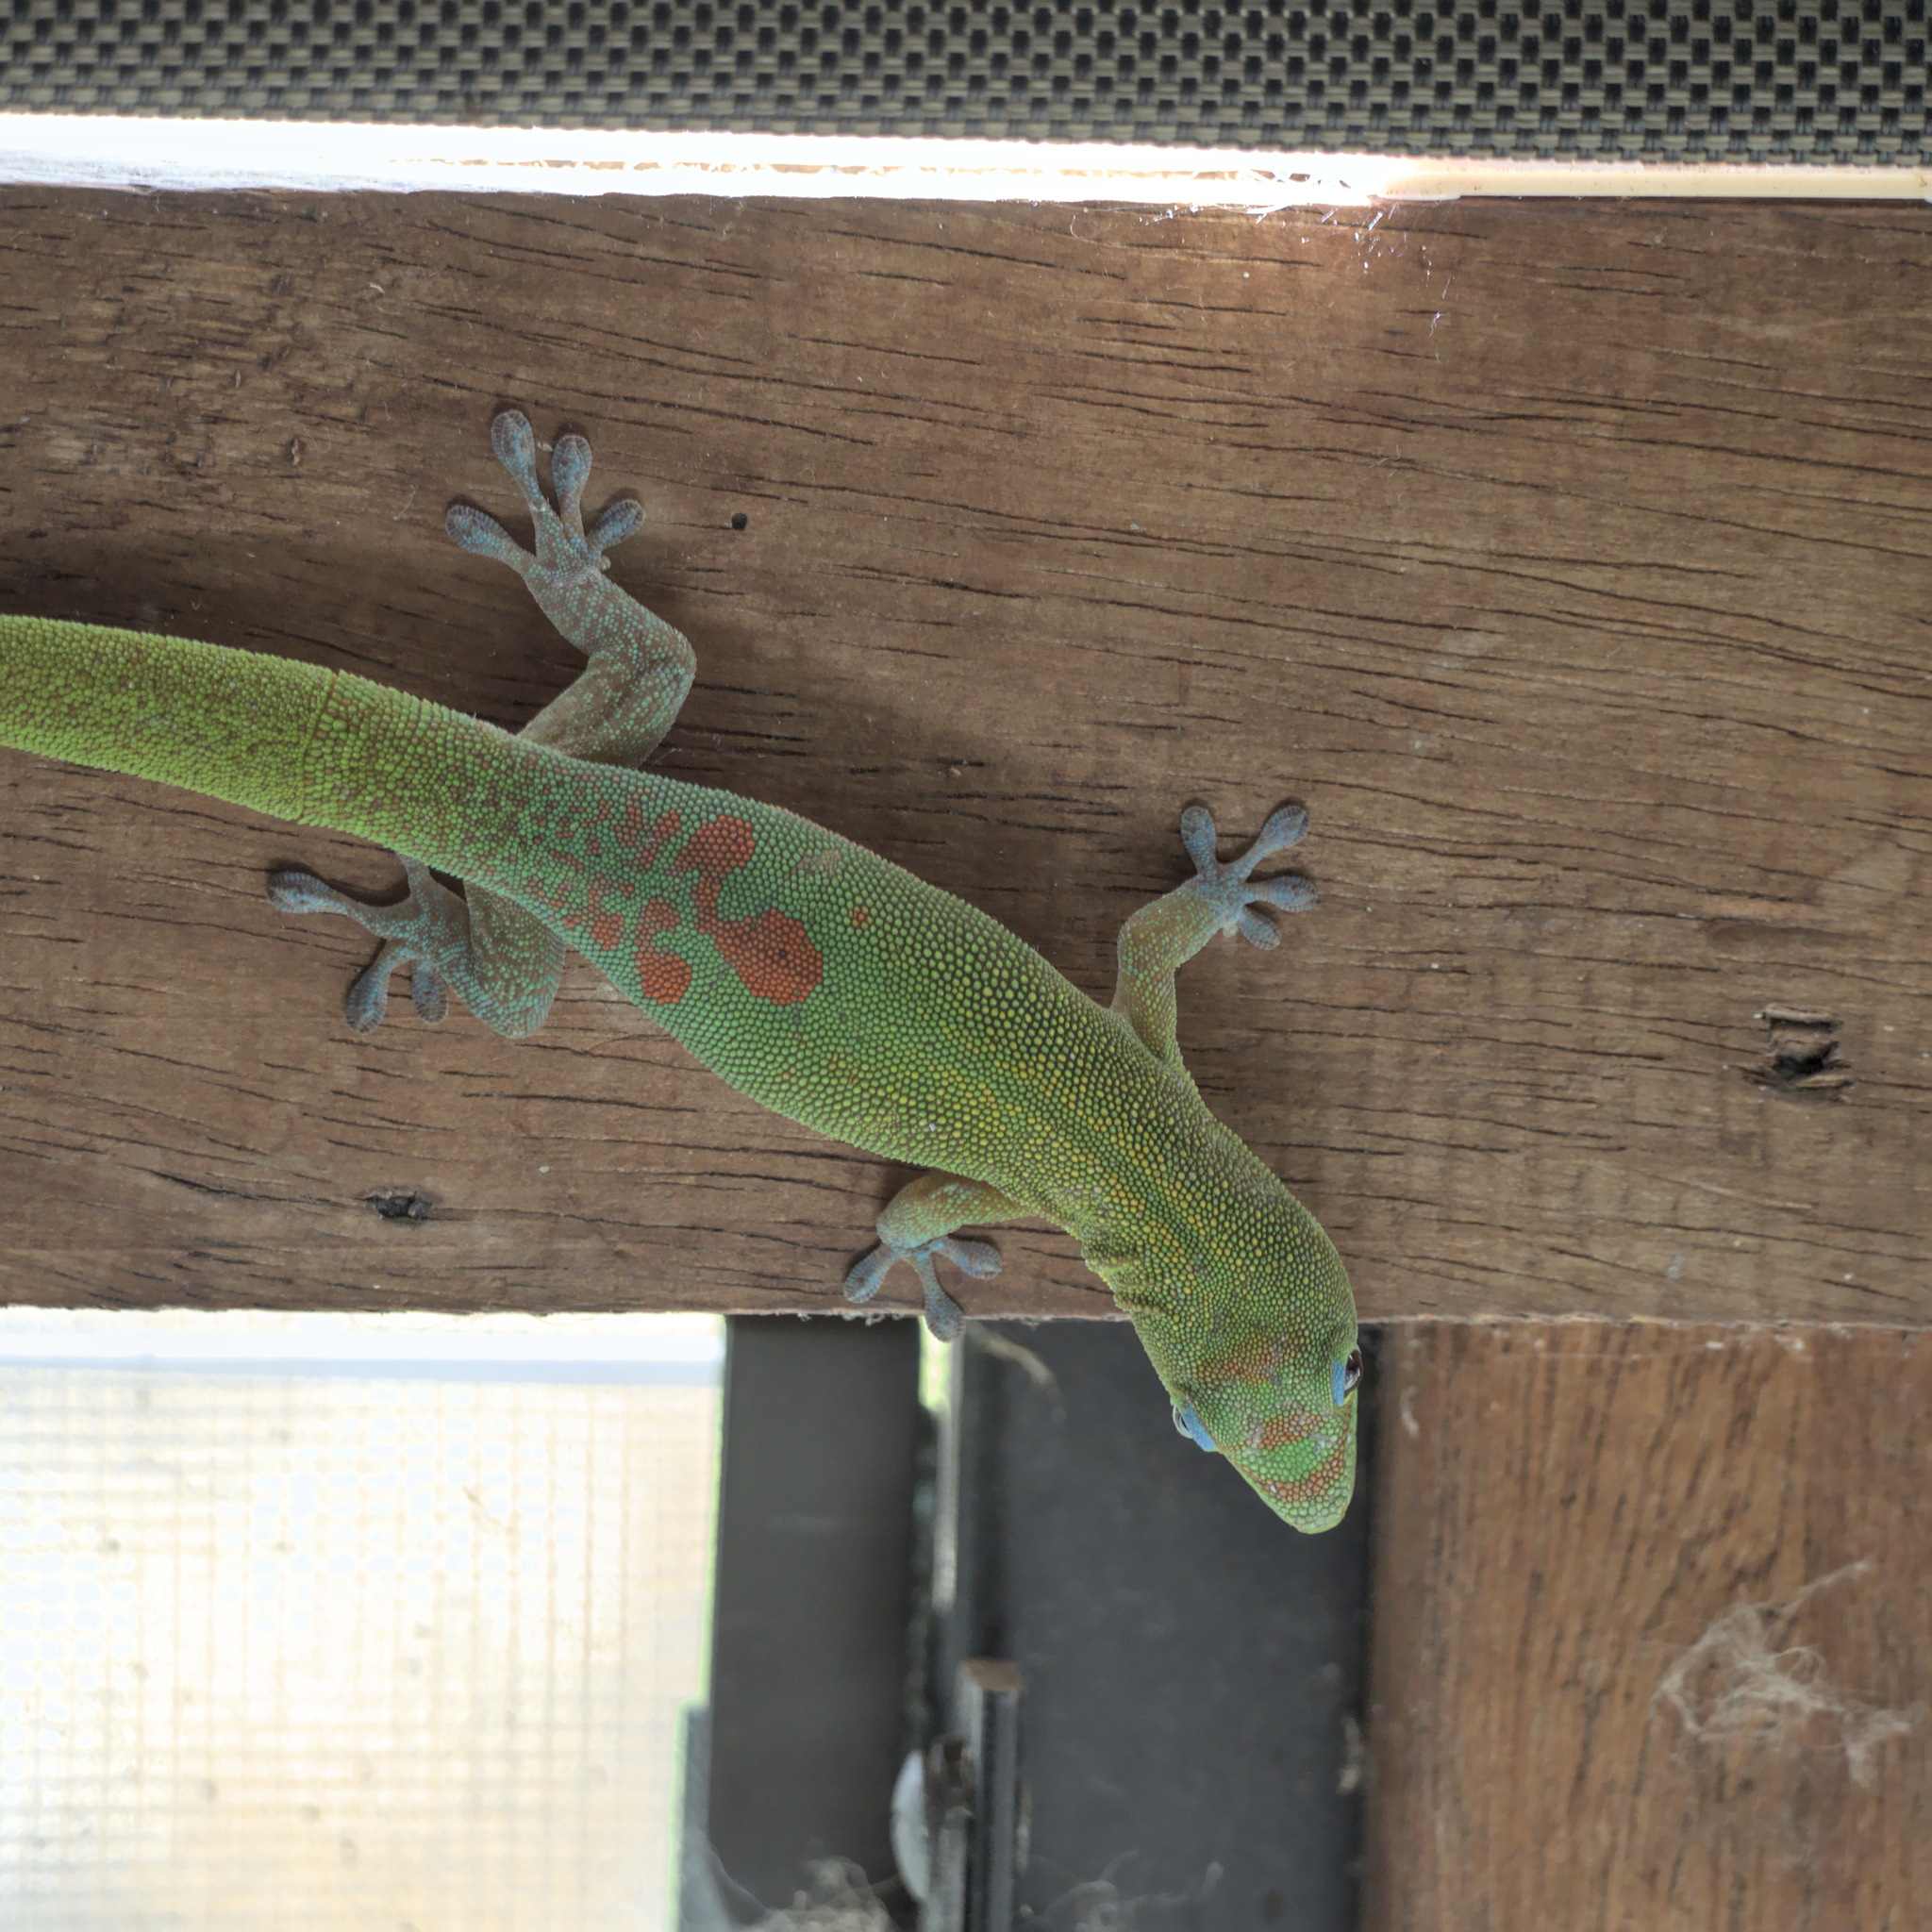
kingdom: Animalia
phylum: Chordata
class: Squamata
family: Gekkonidae
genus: Phelsuma
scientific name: Phelsuma laticauda
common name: Gold dust day gecko
